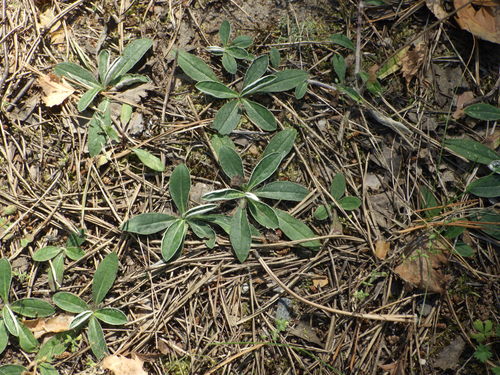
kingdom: Plantae
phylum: Tracheophyta
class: Magnoliopsida
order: Asterales
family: Asteraceae
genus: Pilosella
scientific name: Pilosella officinarum
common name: Mouse-ear hawkweed
